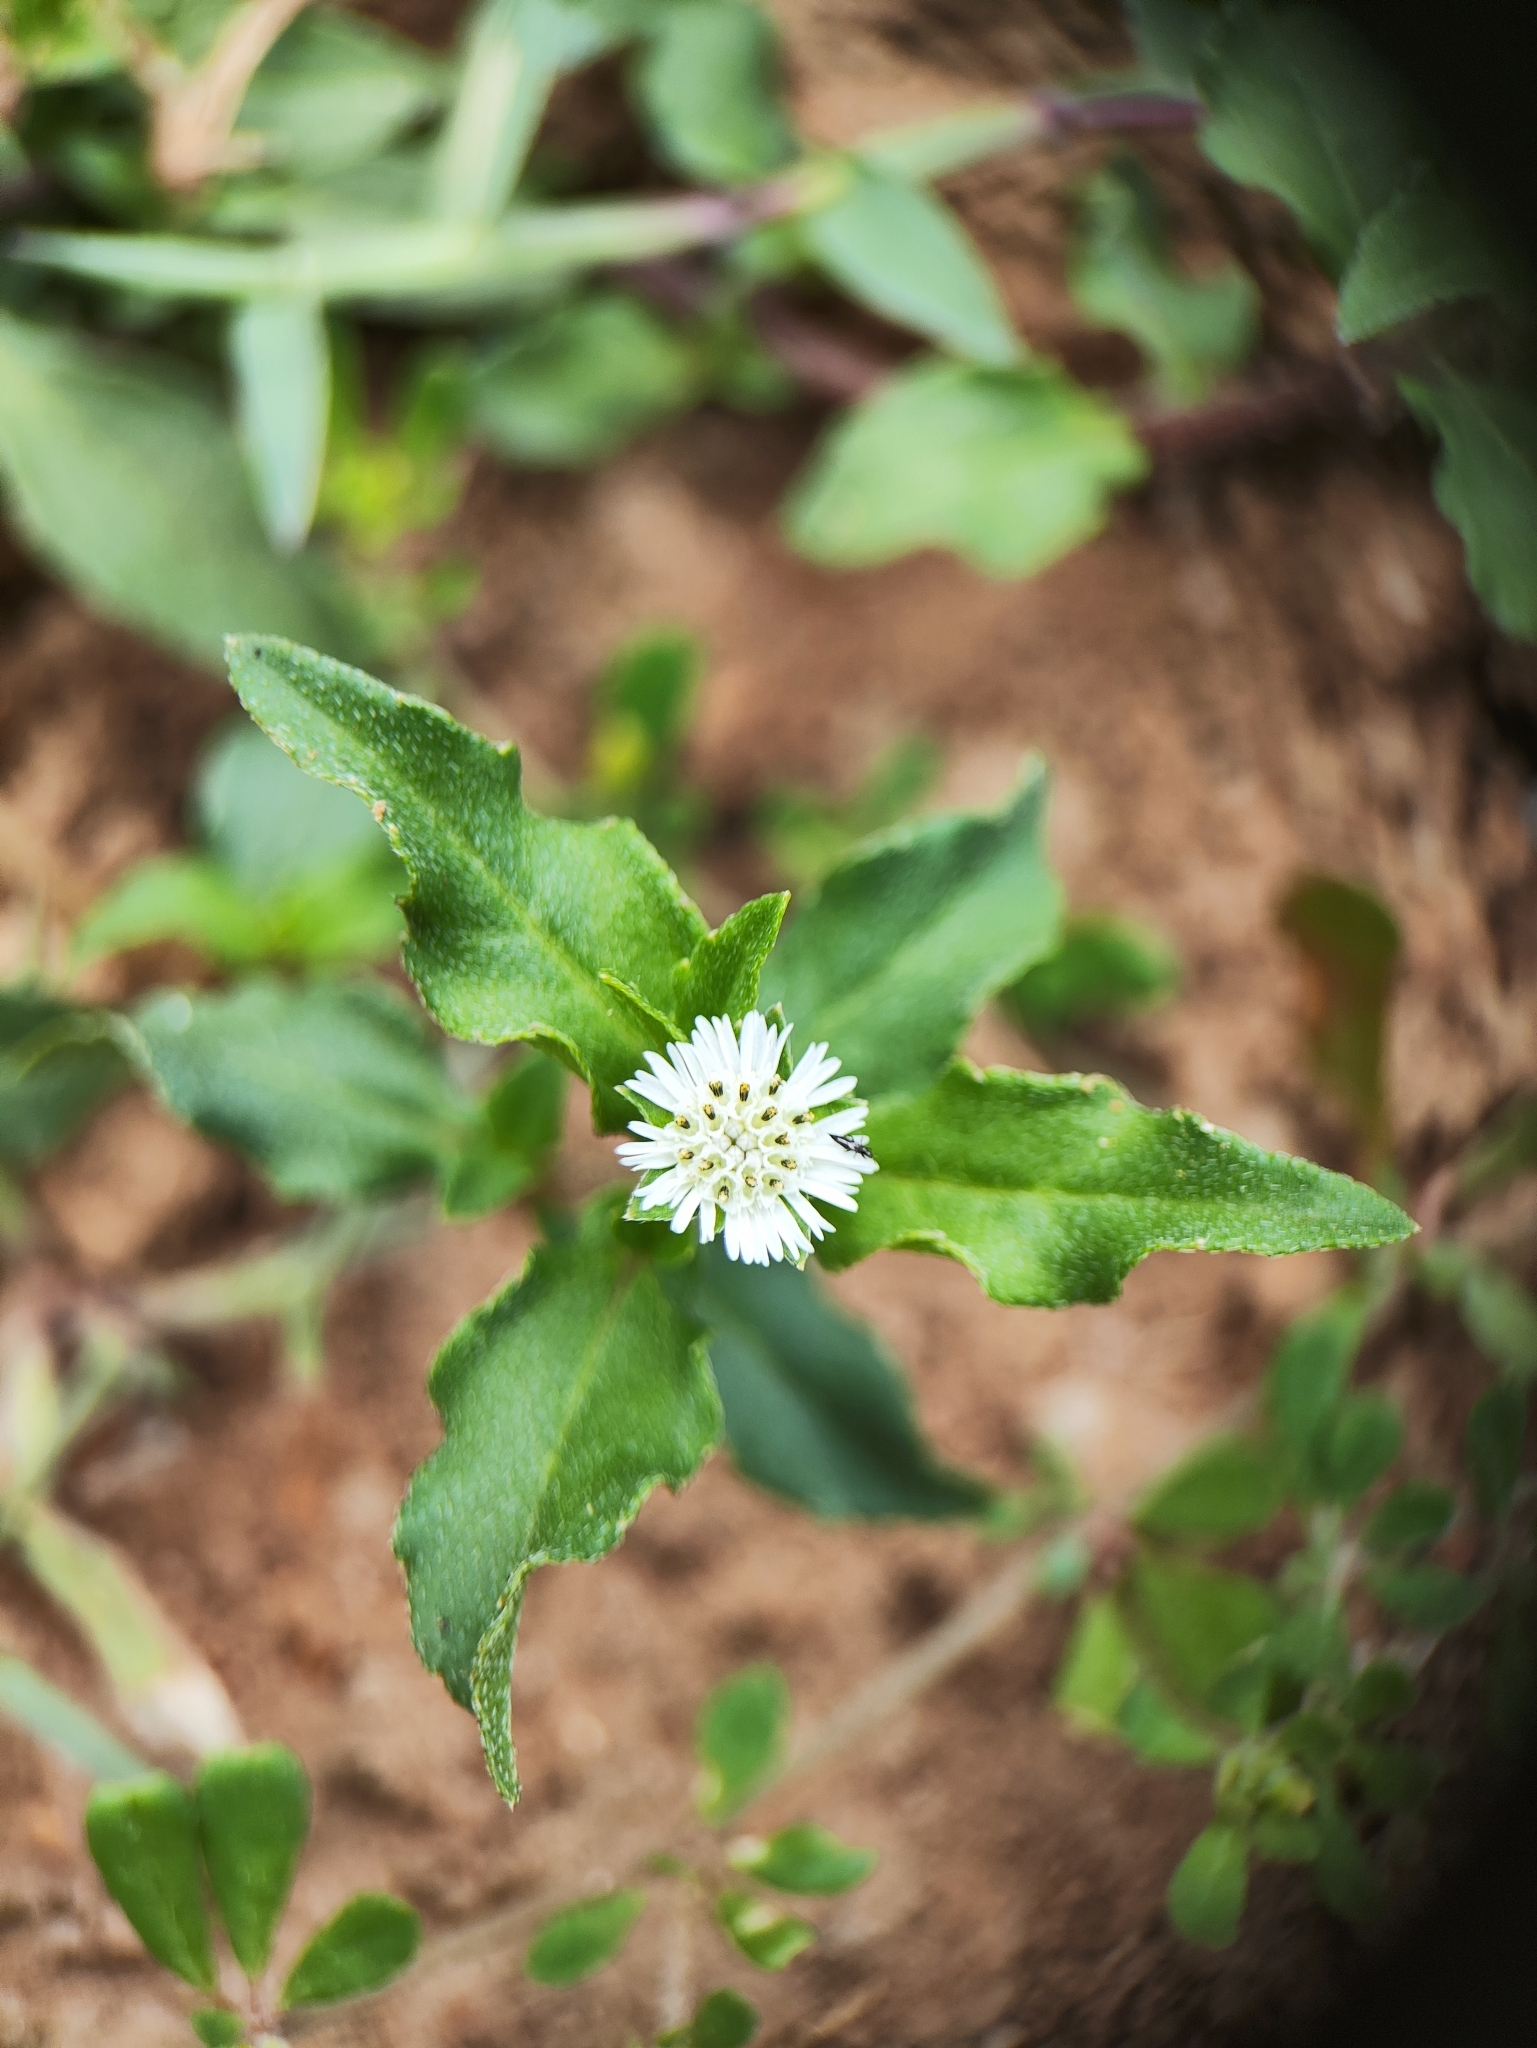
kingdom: Plantae
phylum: Tracheophyta
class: Magnoliopsida
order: Asterales
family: Asteraceae
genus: Eclipta
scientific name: Eclipta prostrata
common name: False daisy
